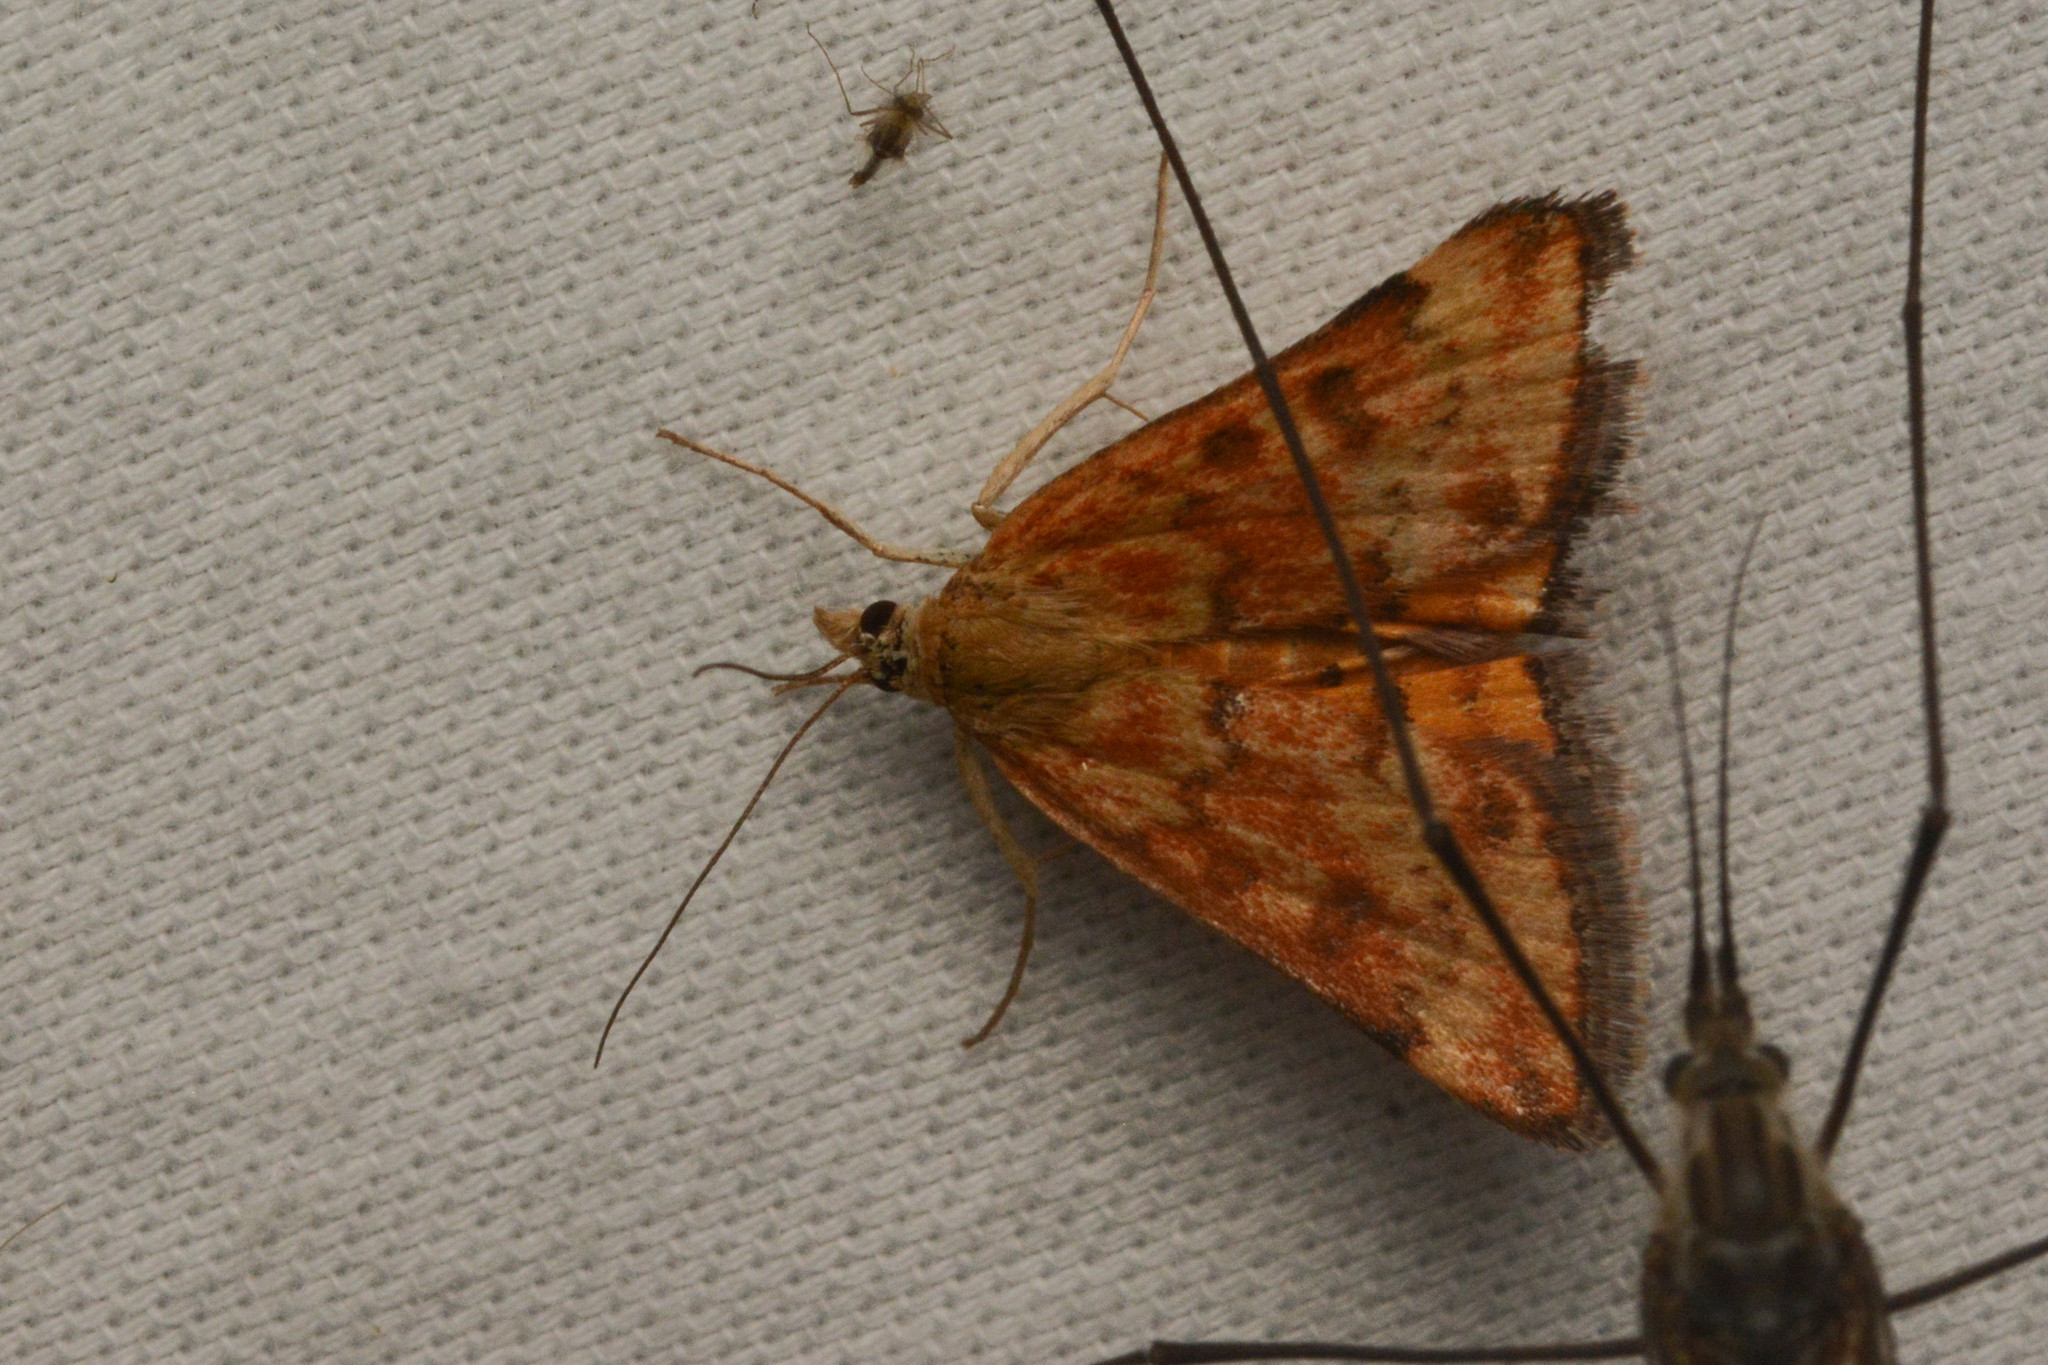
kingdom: Animalia
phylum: Arthropoda
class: Insecta
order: Lepidoptera
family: Crambidae
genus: Pyrausta
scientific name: Pyrausta subsequalis
